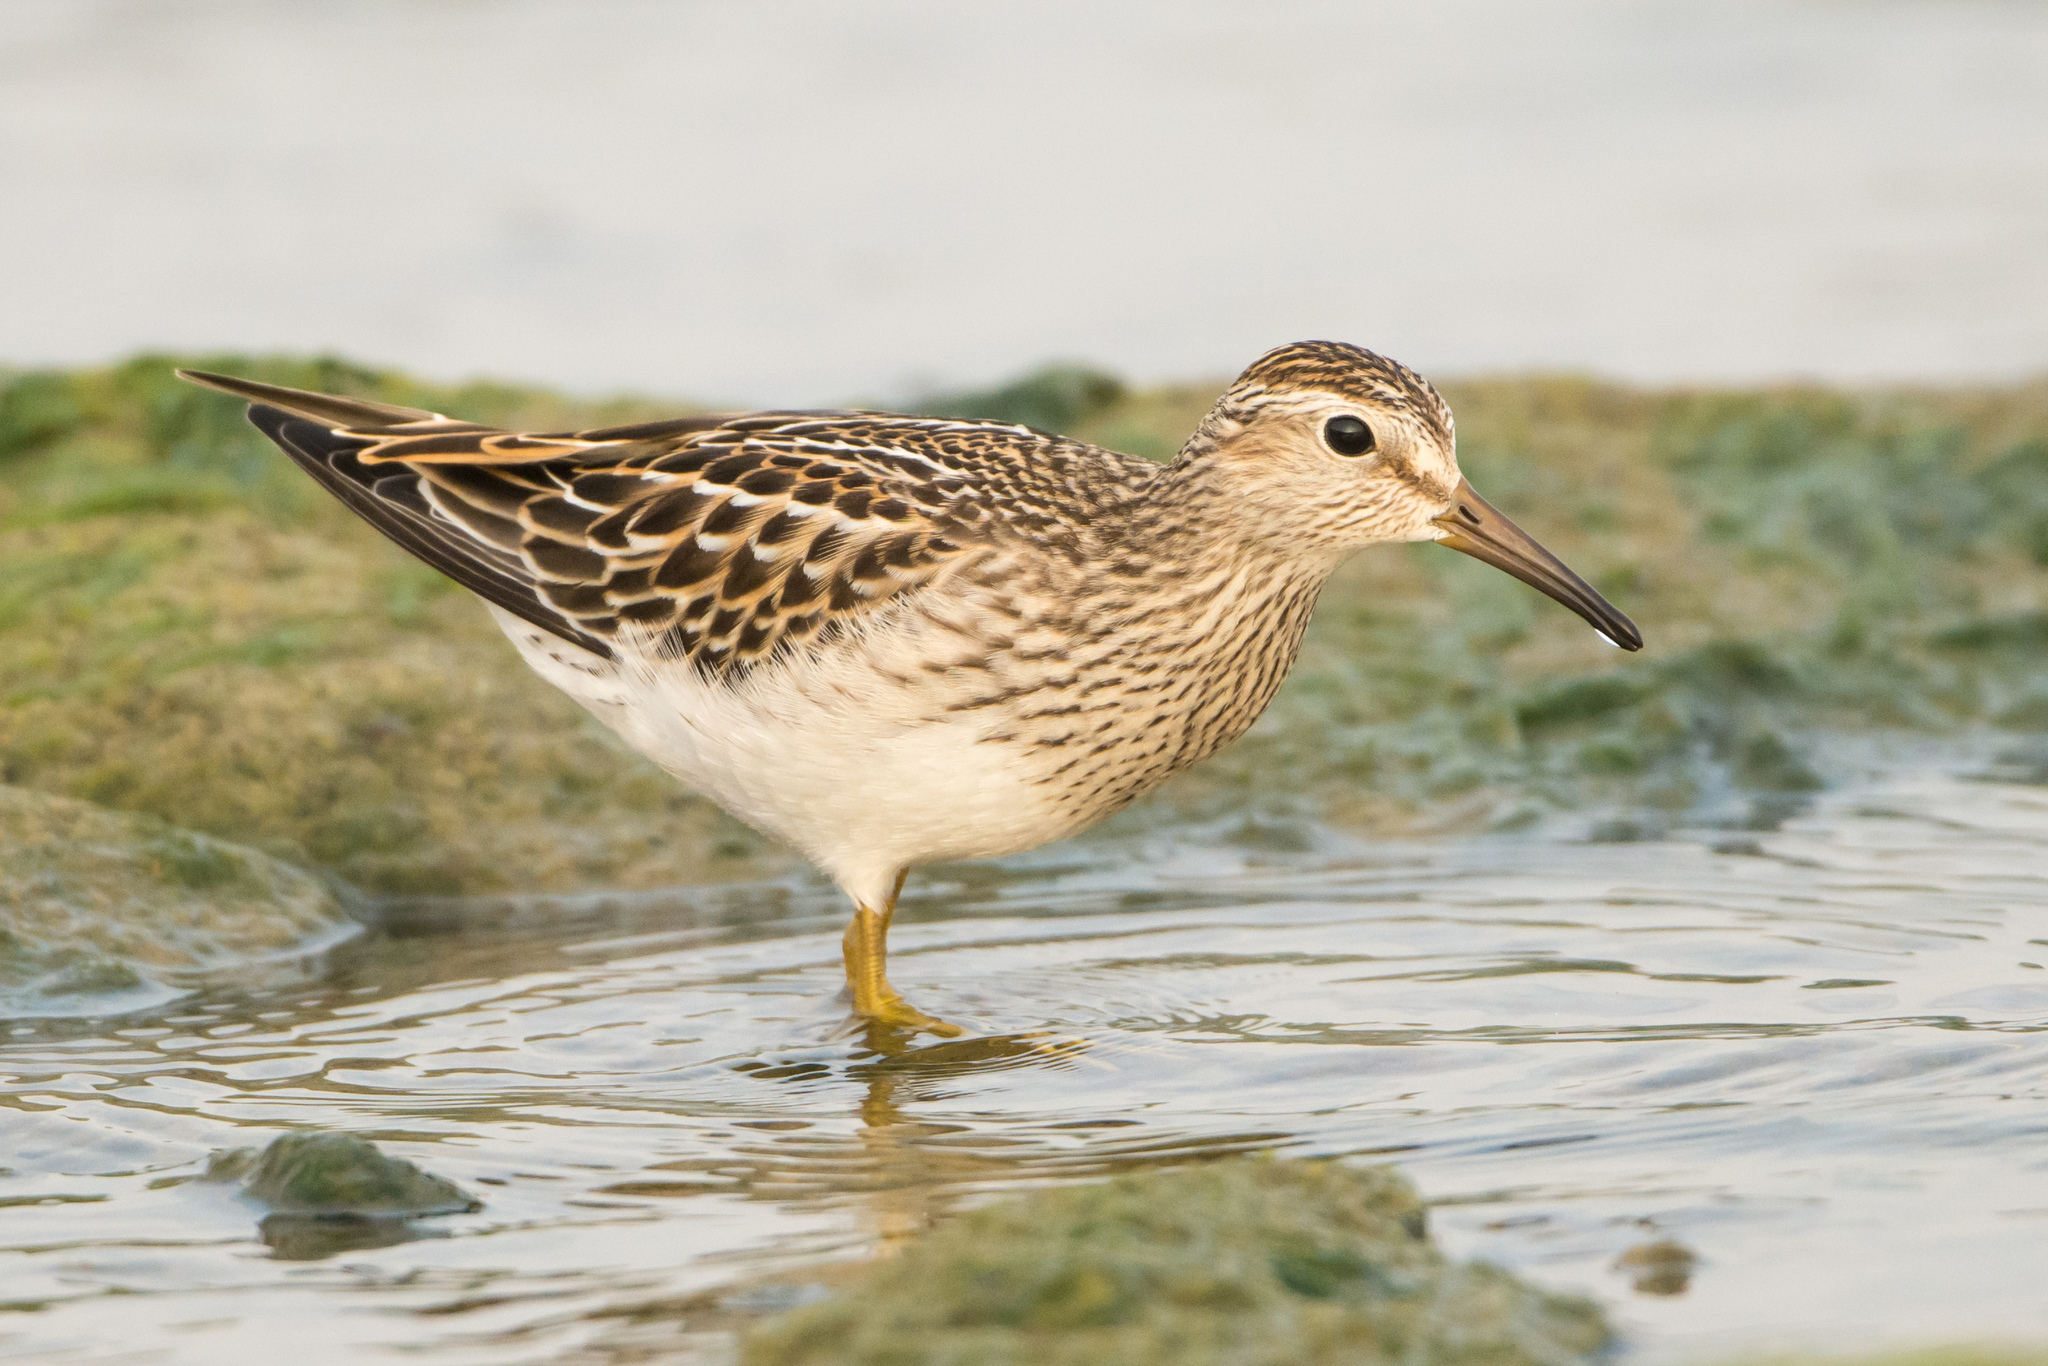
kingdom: Animalia
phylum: Chordata
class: Aves
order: Charadriiformes
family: Scolopacidae
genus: Calidris
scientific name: Calidris melanotos
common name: Pectoral sandpiper
